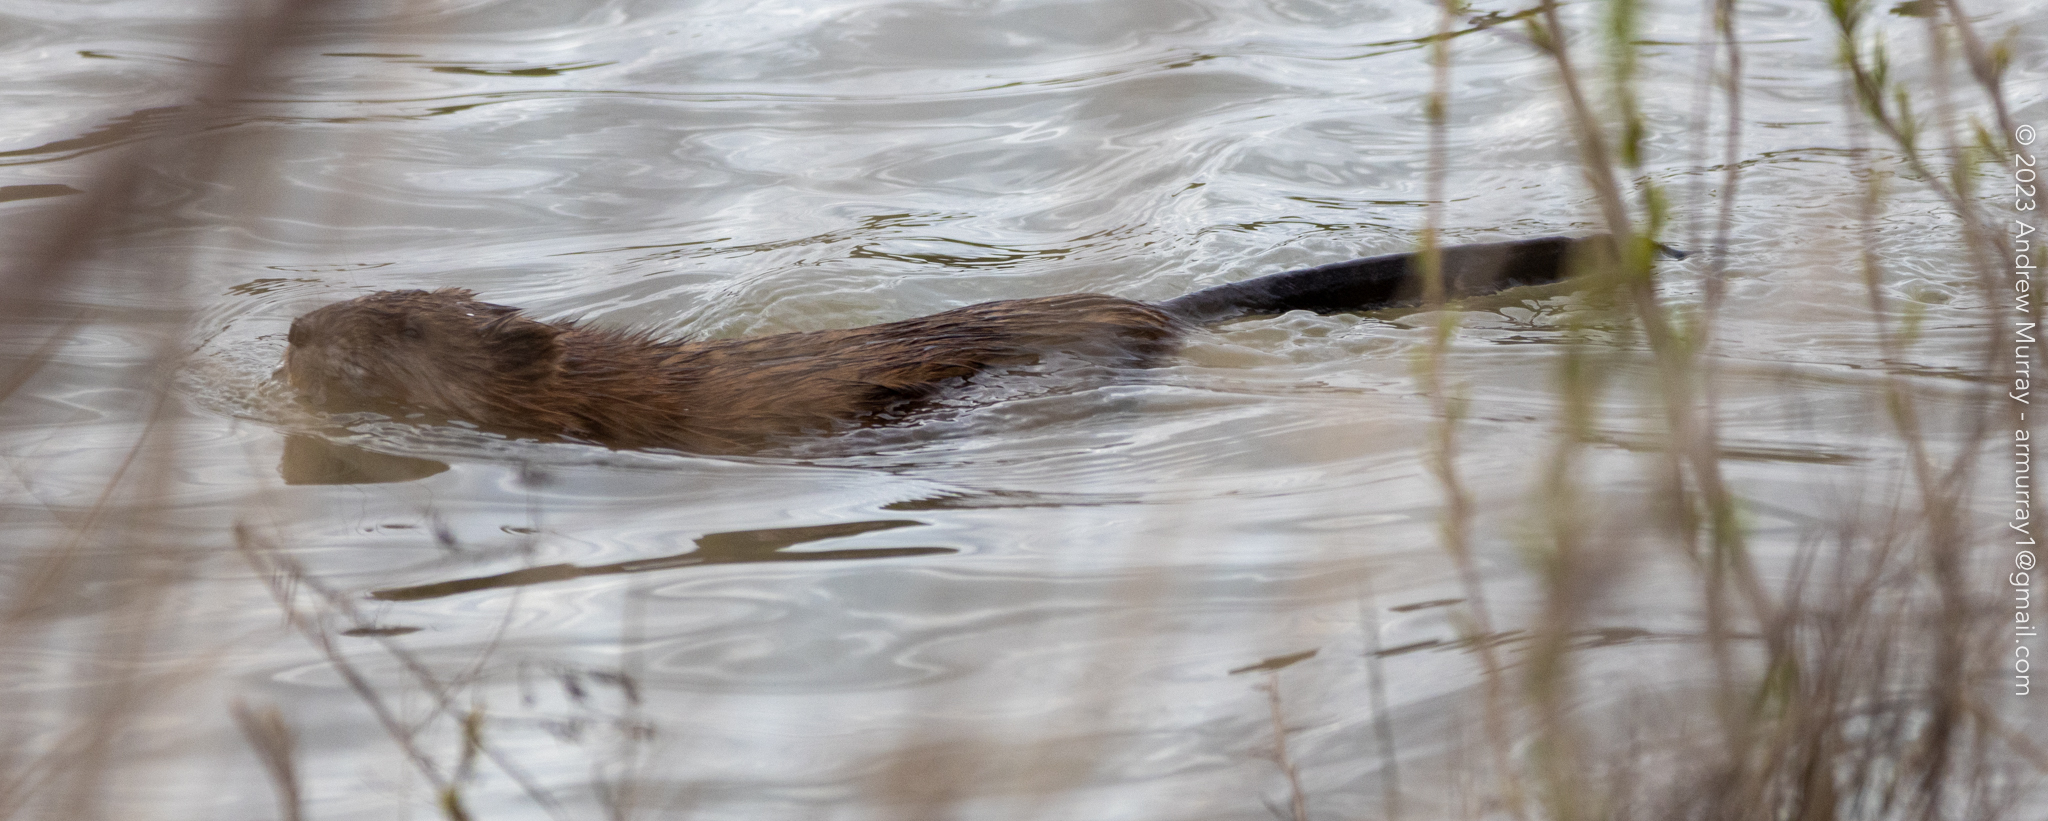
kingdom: Animalia
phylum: Chordata
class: Mammalia
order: Rodentia
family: Cricetidae
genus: Ondatra
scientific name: Ondatra zibethicus
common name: Muskrat
